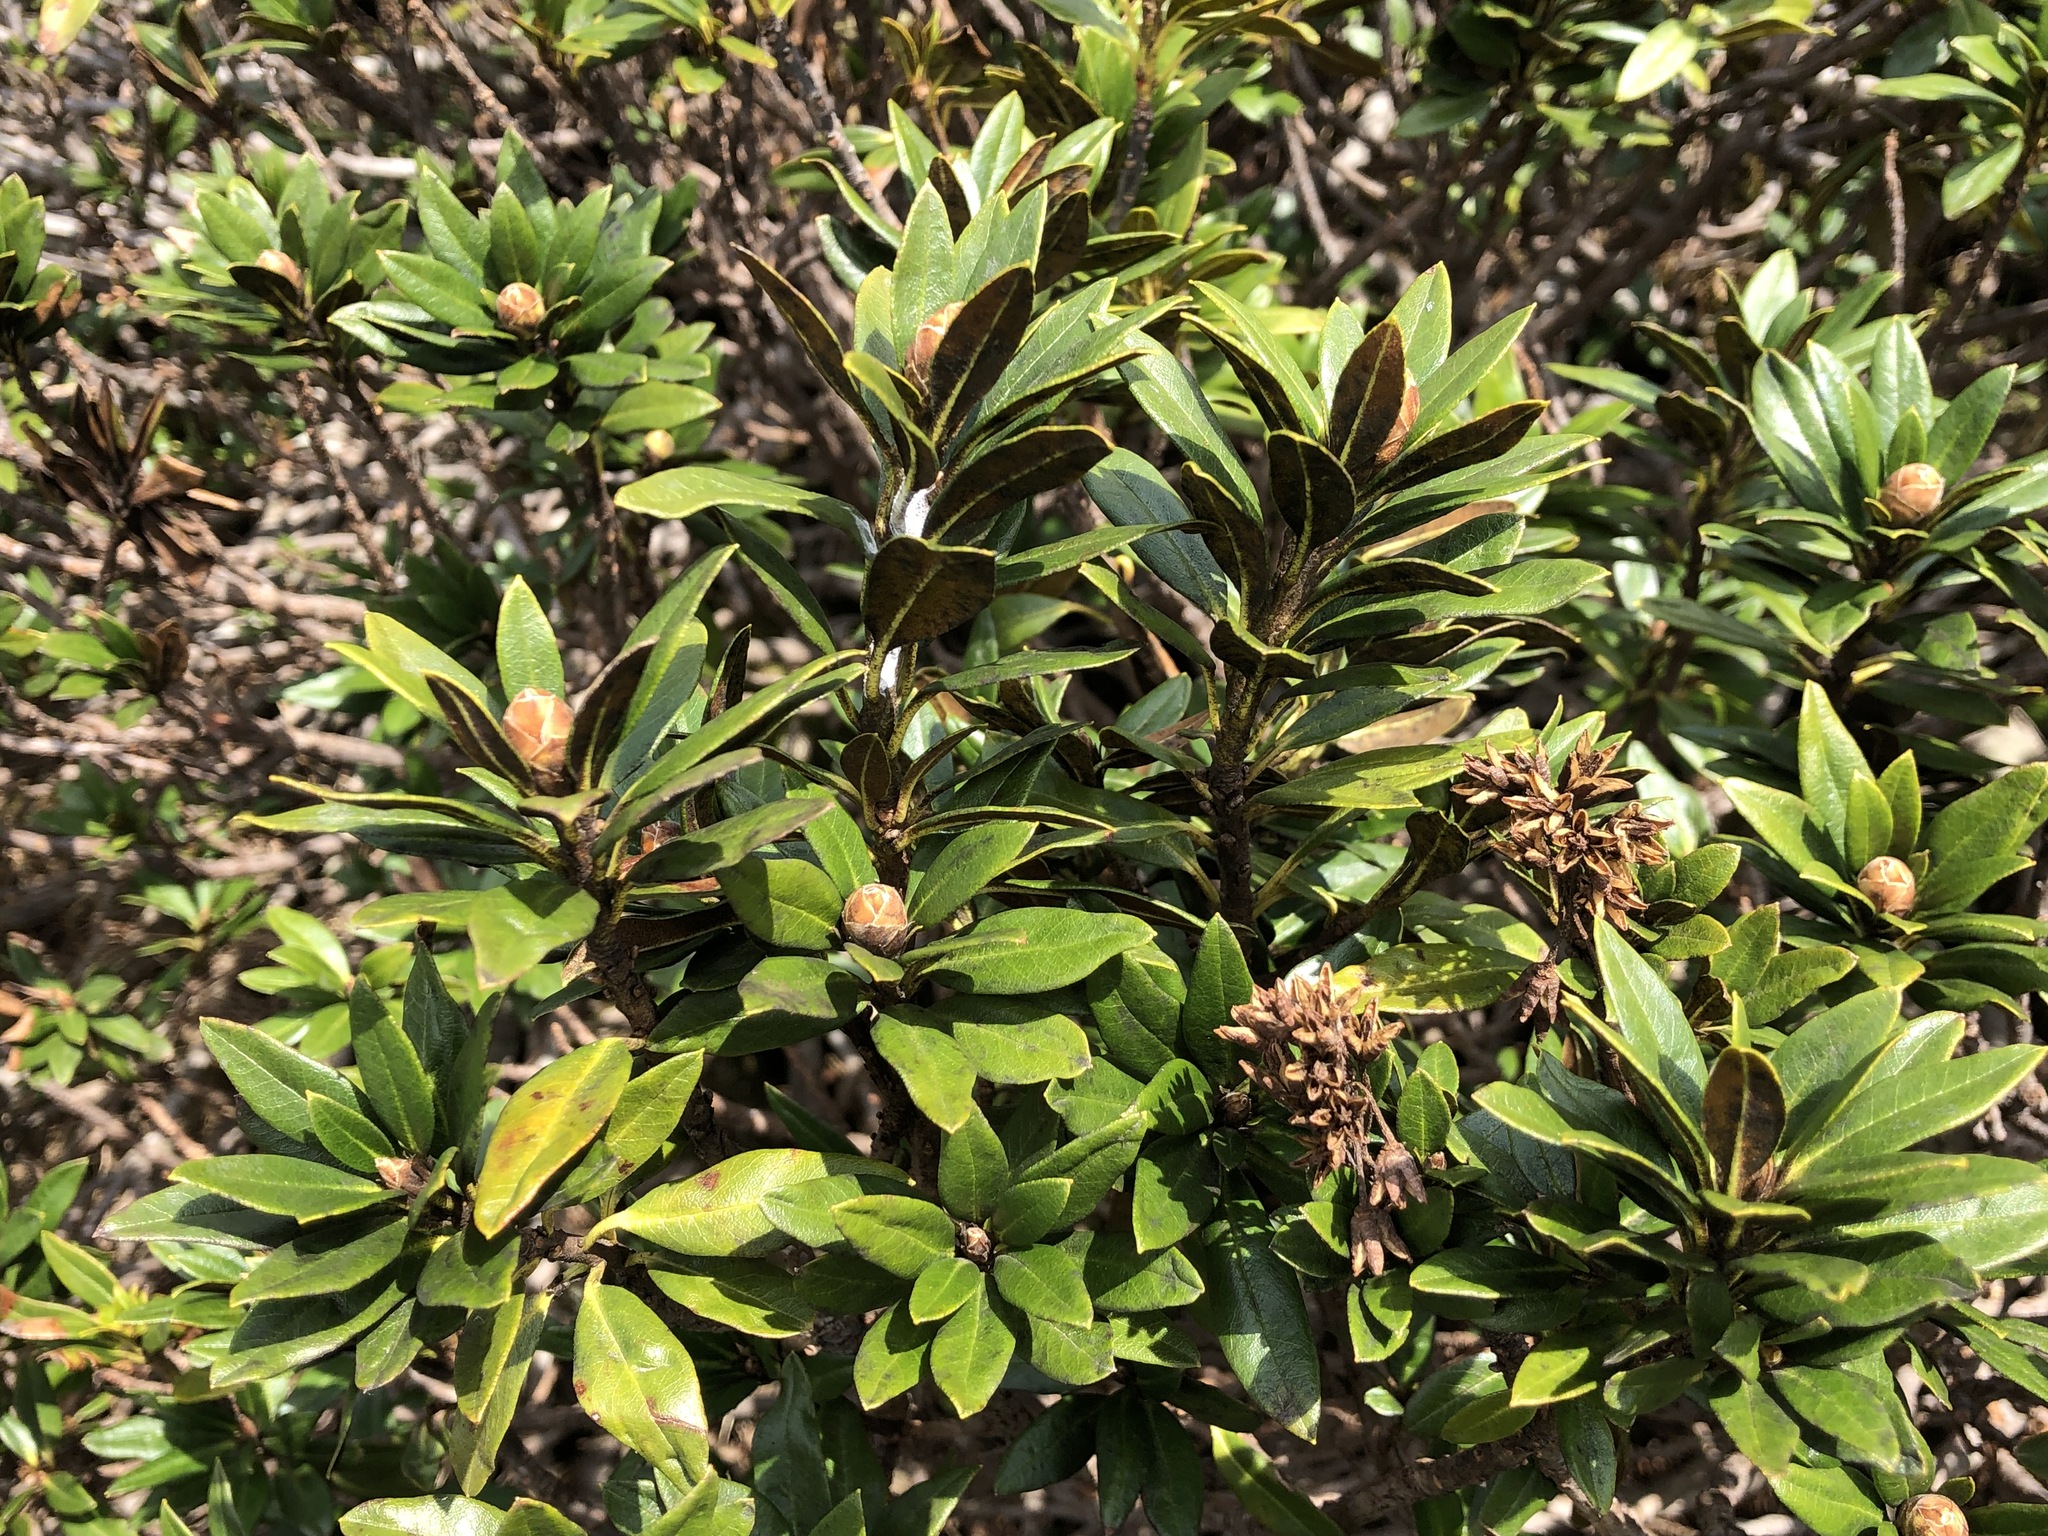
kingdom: Plantae
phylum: Tracheophyta
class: Magnoliopsida
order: Ericales
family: Ericaceae
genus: Rhododendron
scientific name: Rhododendron ferrugineum
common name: Alpenrose
